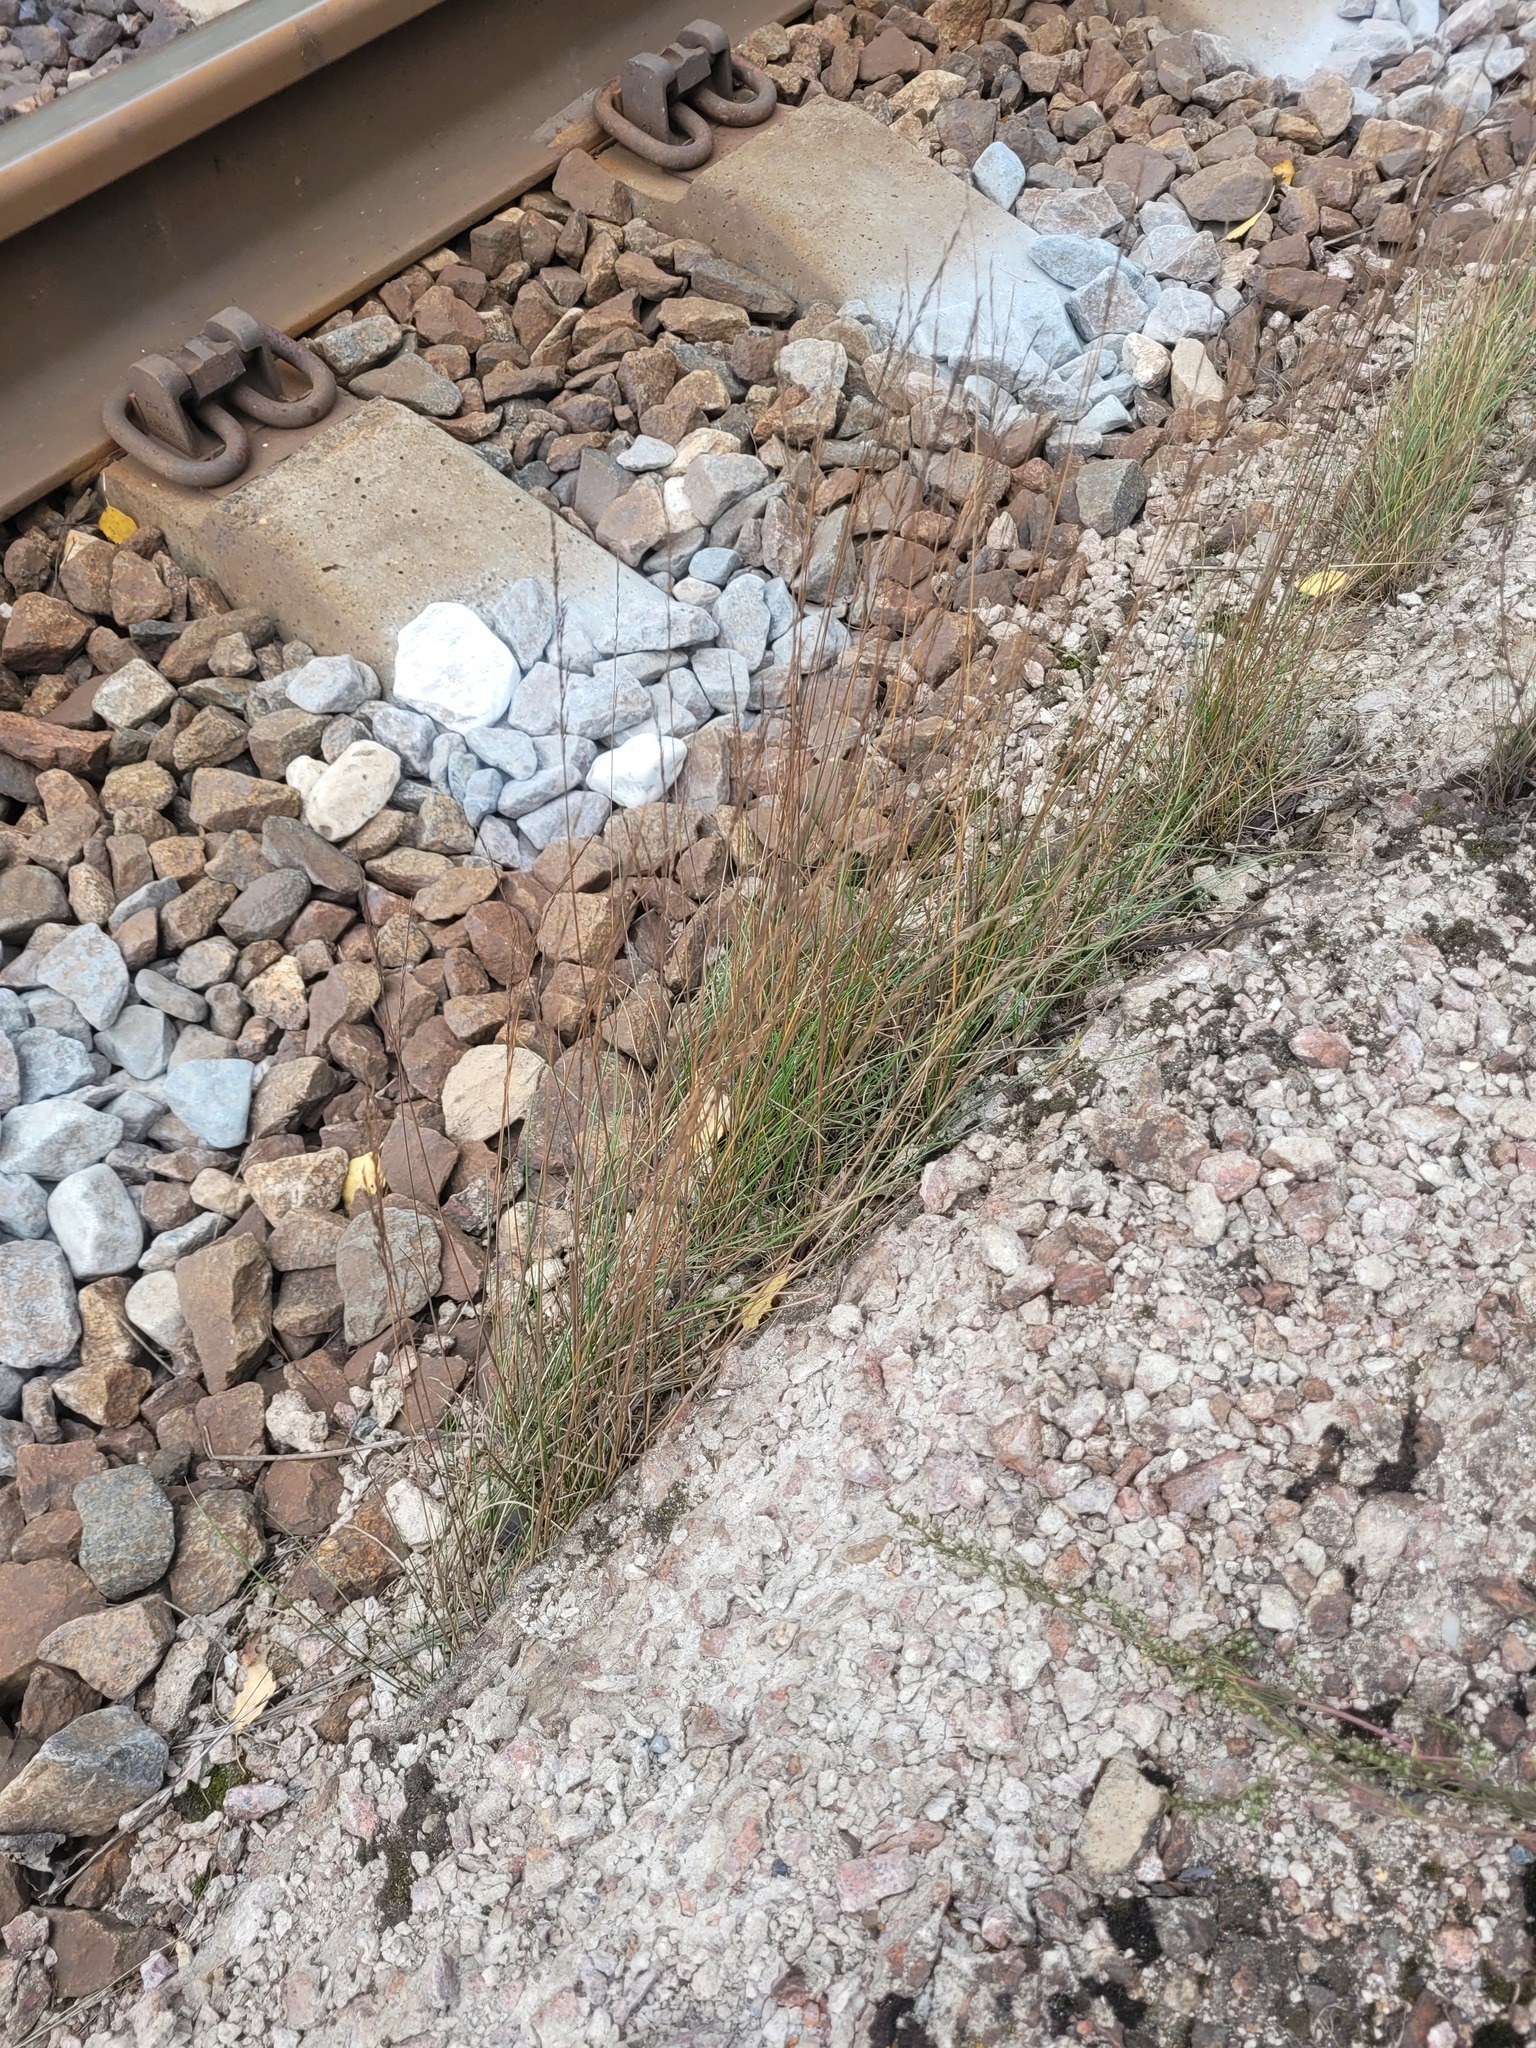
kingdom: Plantae
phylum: Tracheophyta
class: Liliopsida
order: Poales
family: Poaceae
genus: Festuca
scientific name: Festuca rubra
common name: Red fescue
